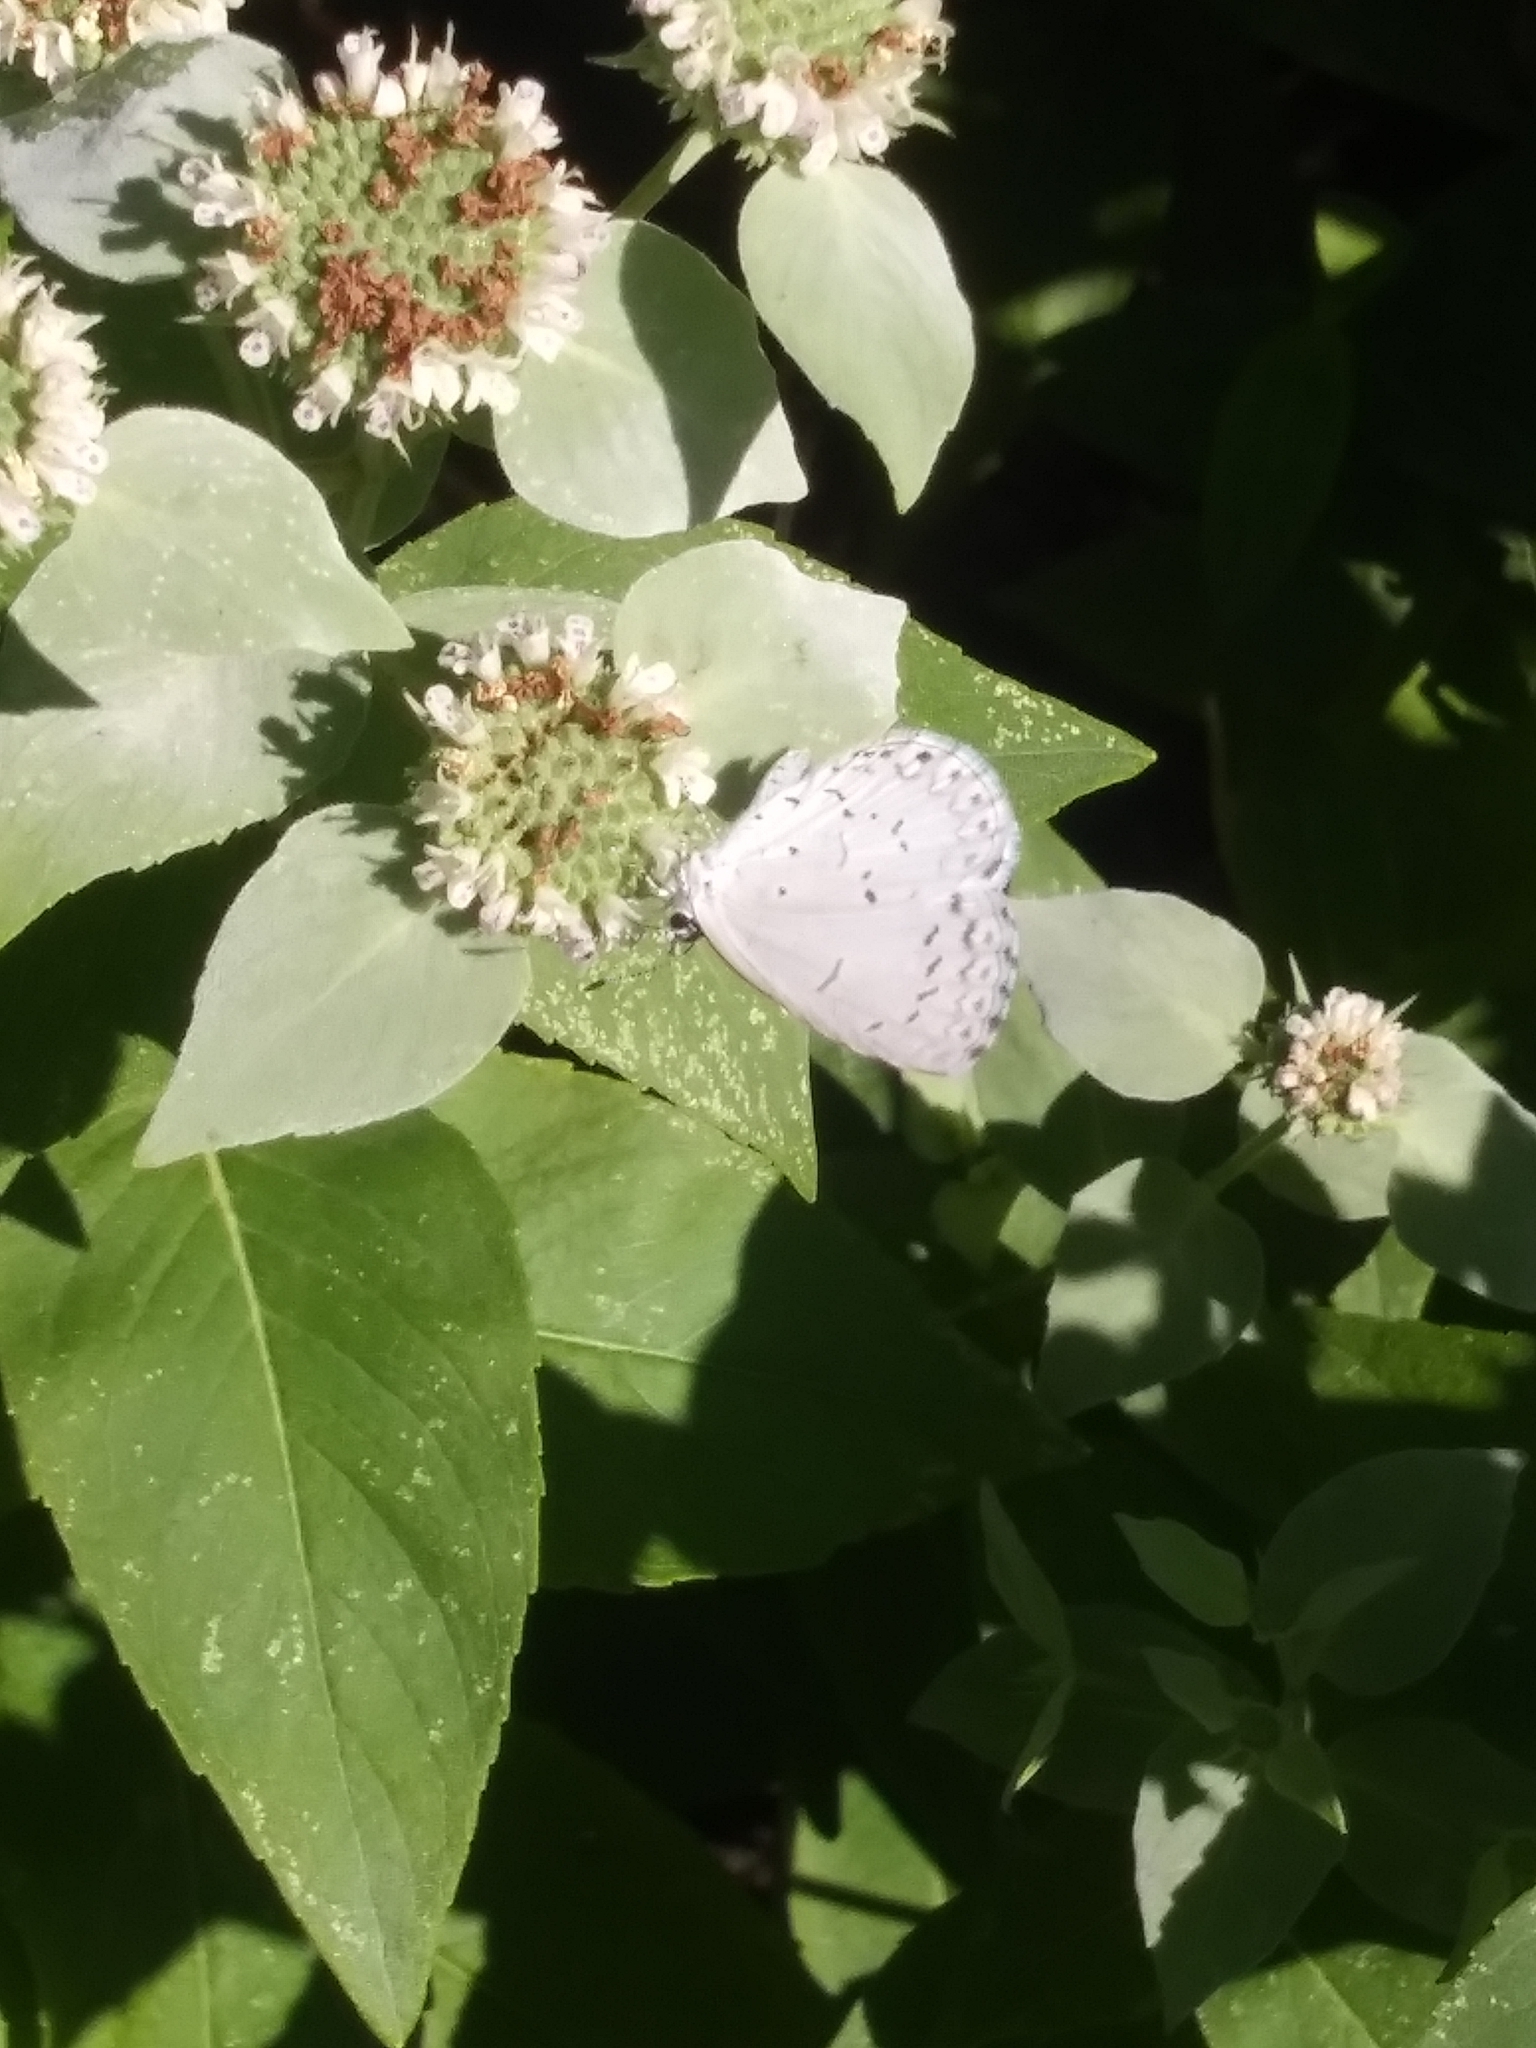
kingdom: Animalia
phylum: Arthropoda
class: Insecta
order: Lepidoptera
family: Lycaenidae
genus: Cyaniris
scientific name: Cyaniris neglecta
